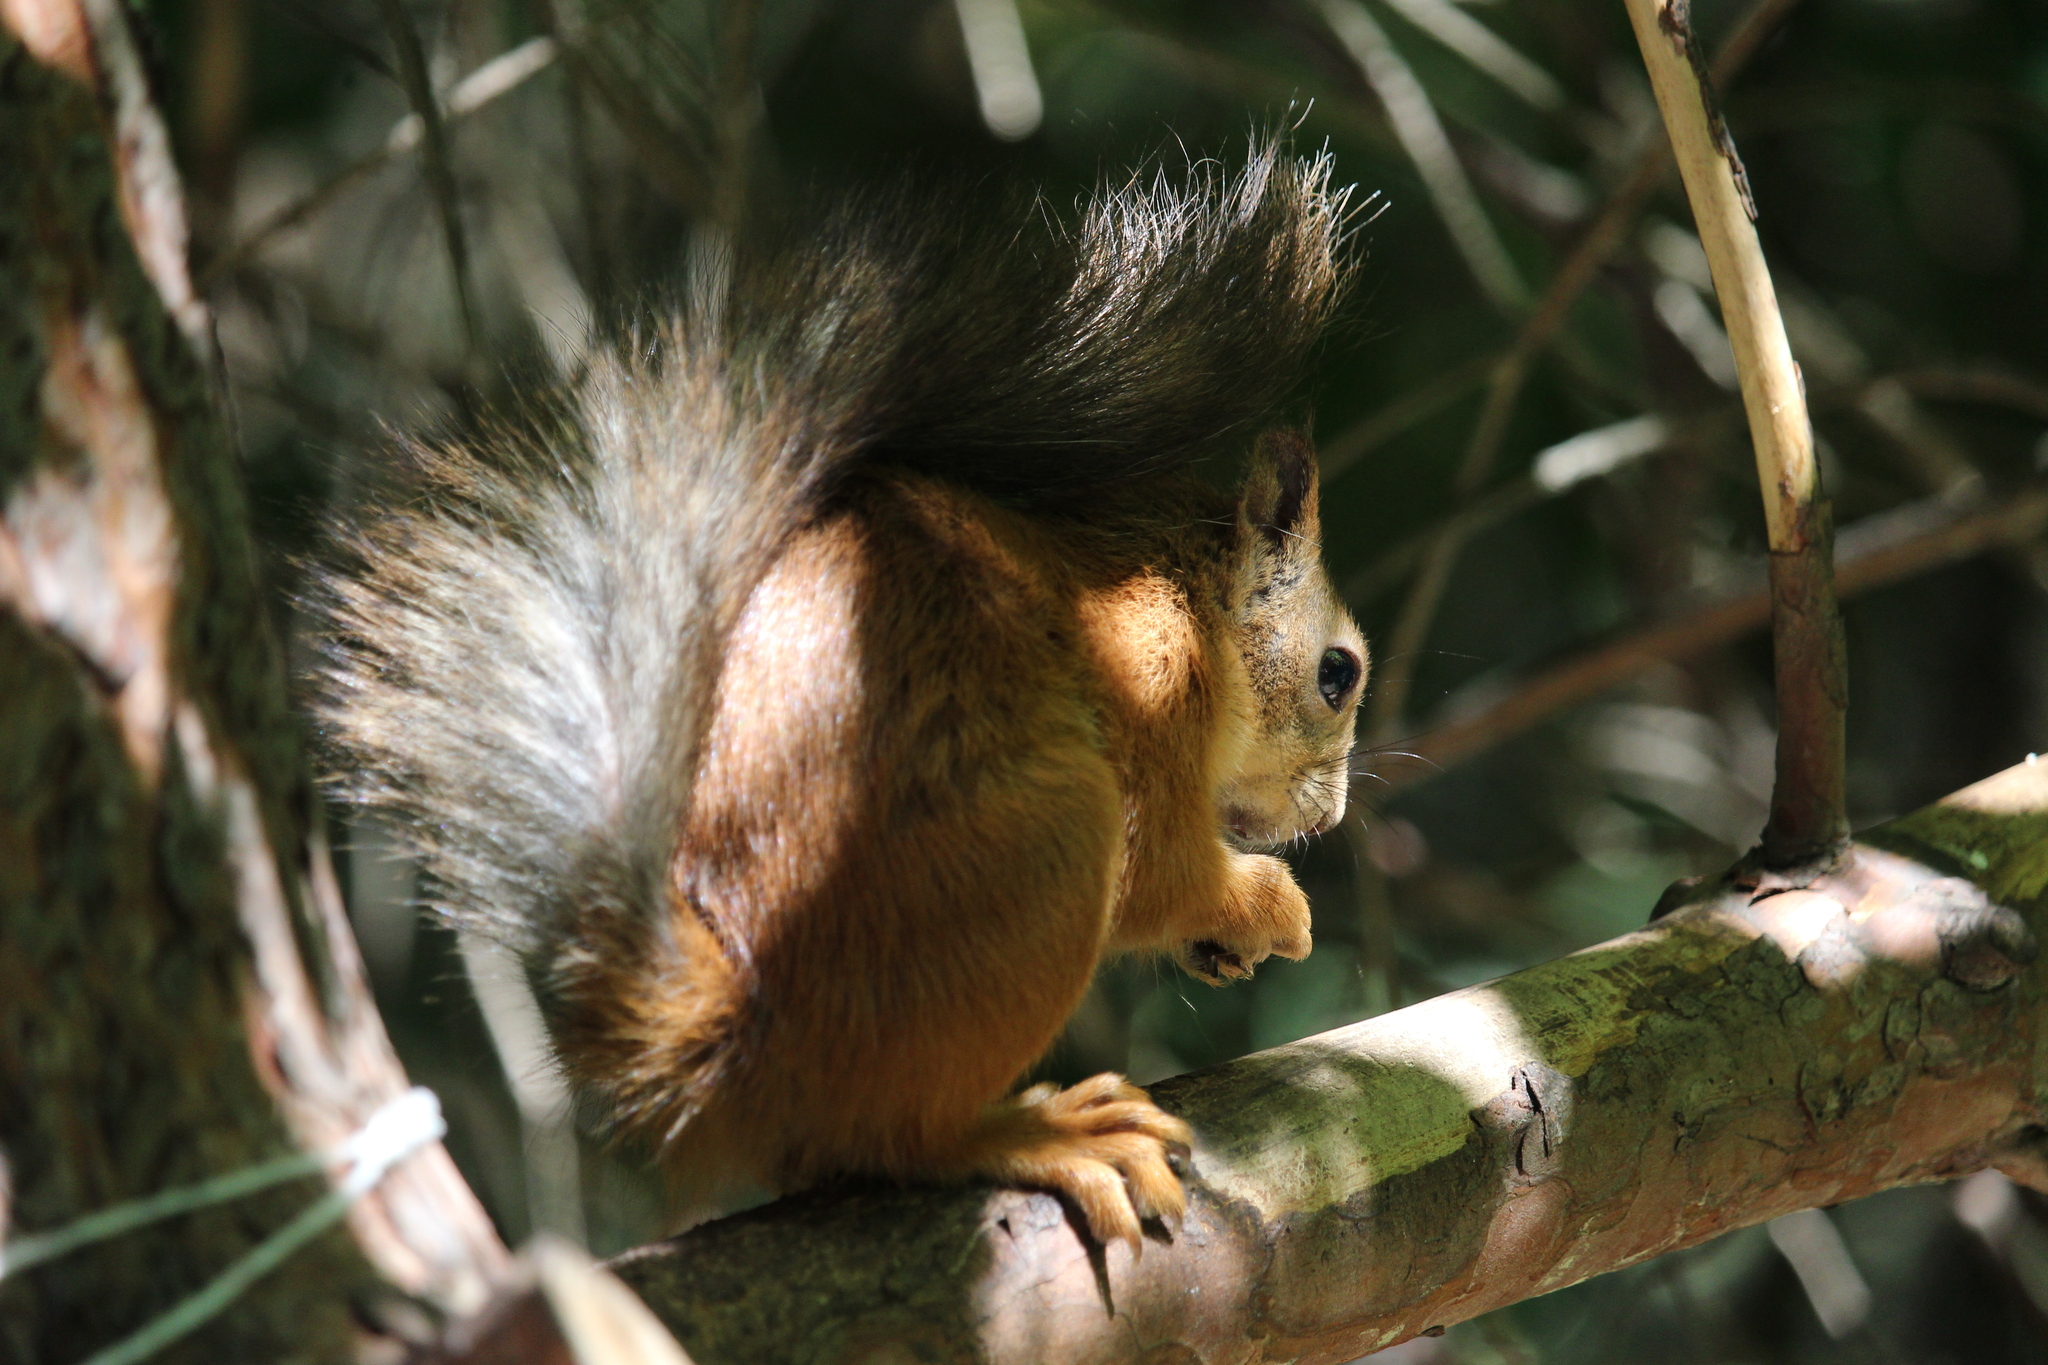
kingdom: Animalia
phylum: Chordata
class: Mammalia
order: Rodentia
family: Sciuridae
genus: Sciurus
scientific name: Sciurus vulgaris
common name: Eurasian red squirrel
